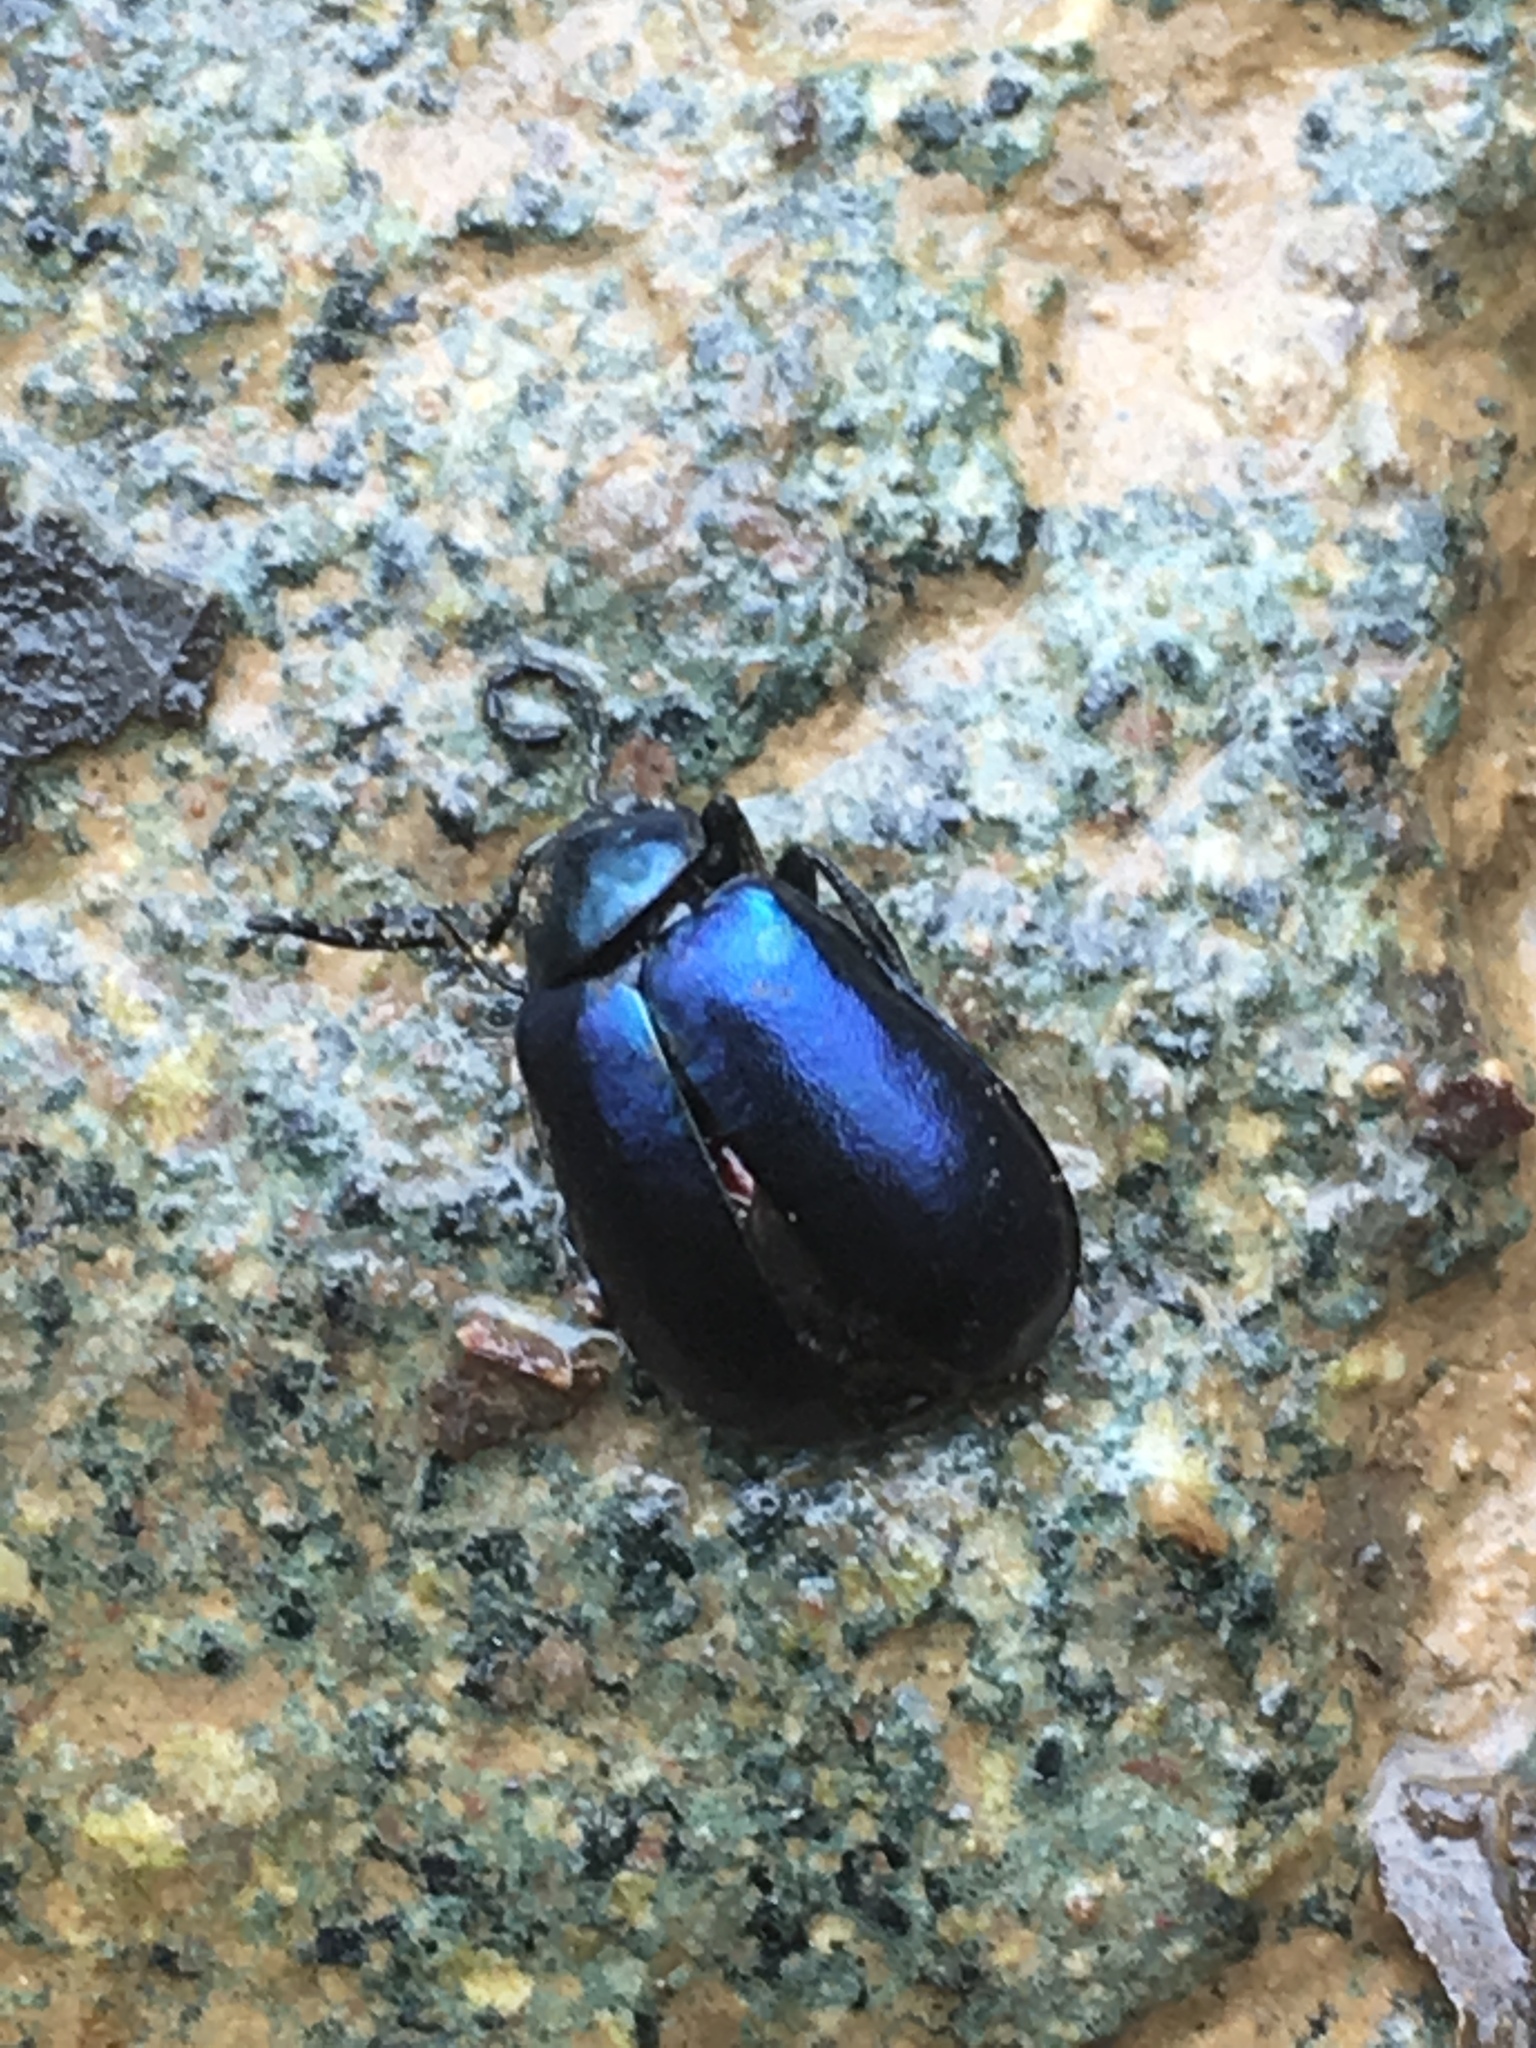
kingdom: Animalia
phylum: Arthropoda
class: Insecta
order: Coleoptera
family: Chrysomelidae
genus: Agelastica
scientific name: Agelastica alni
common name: Alder leaf beetle
